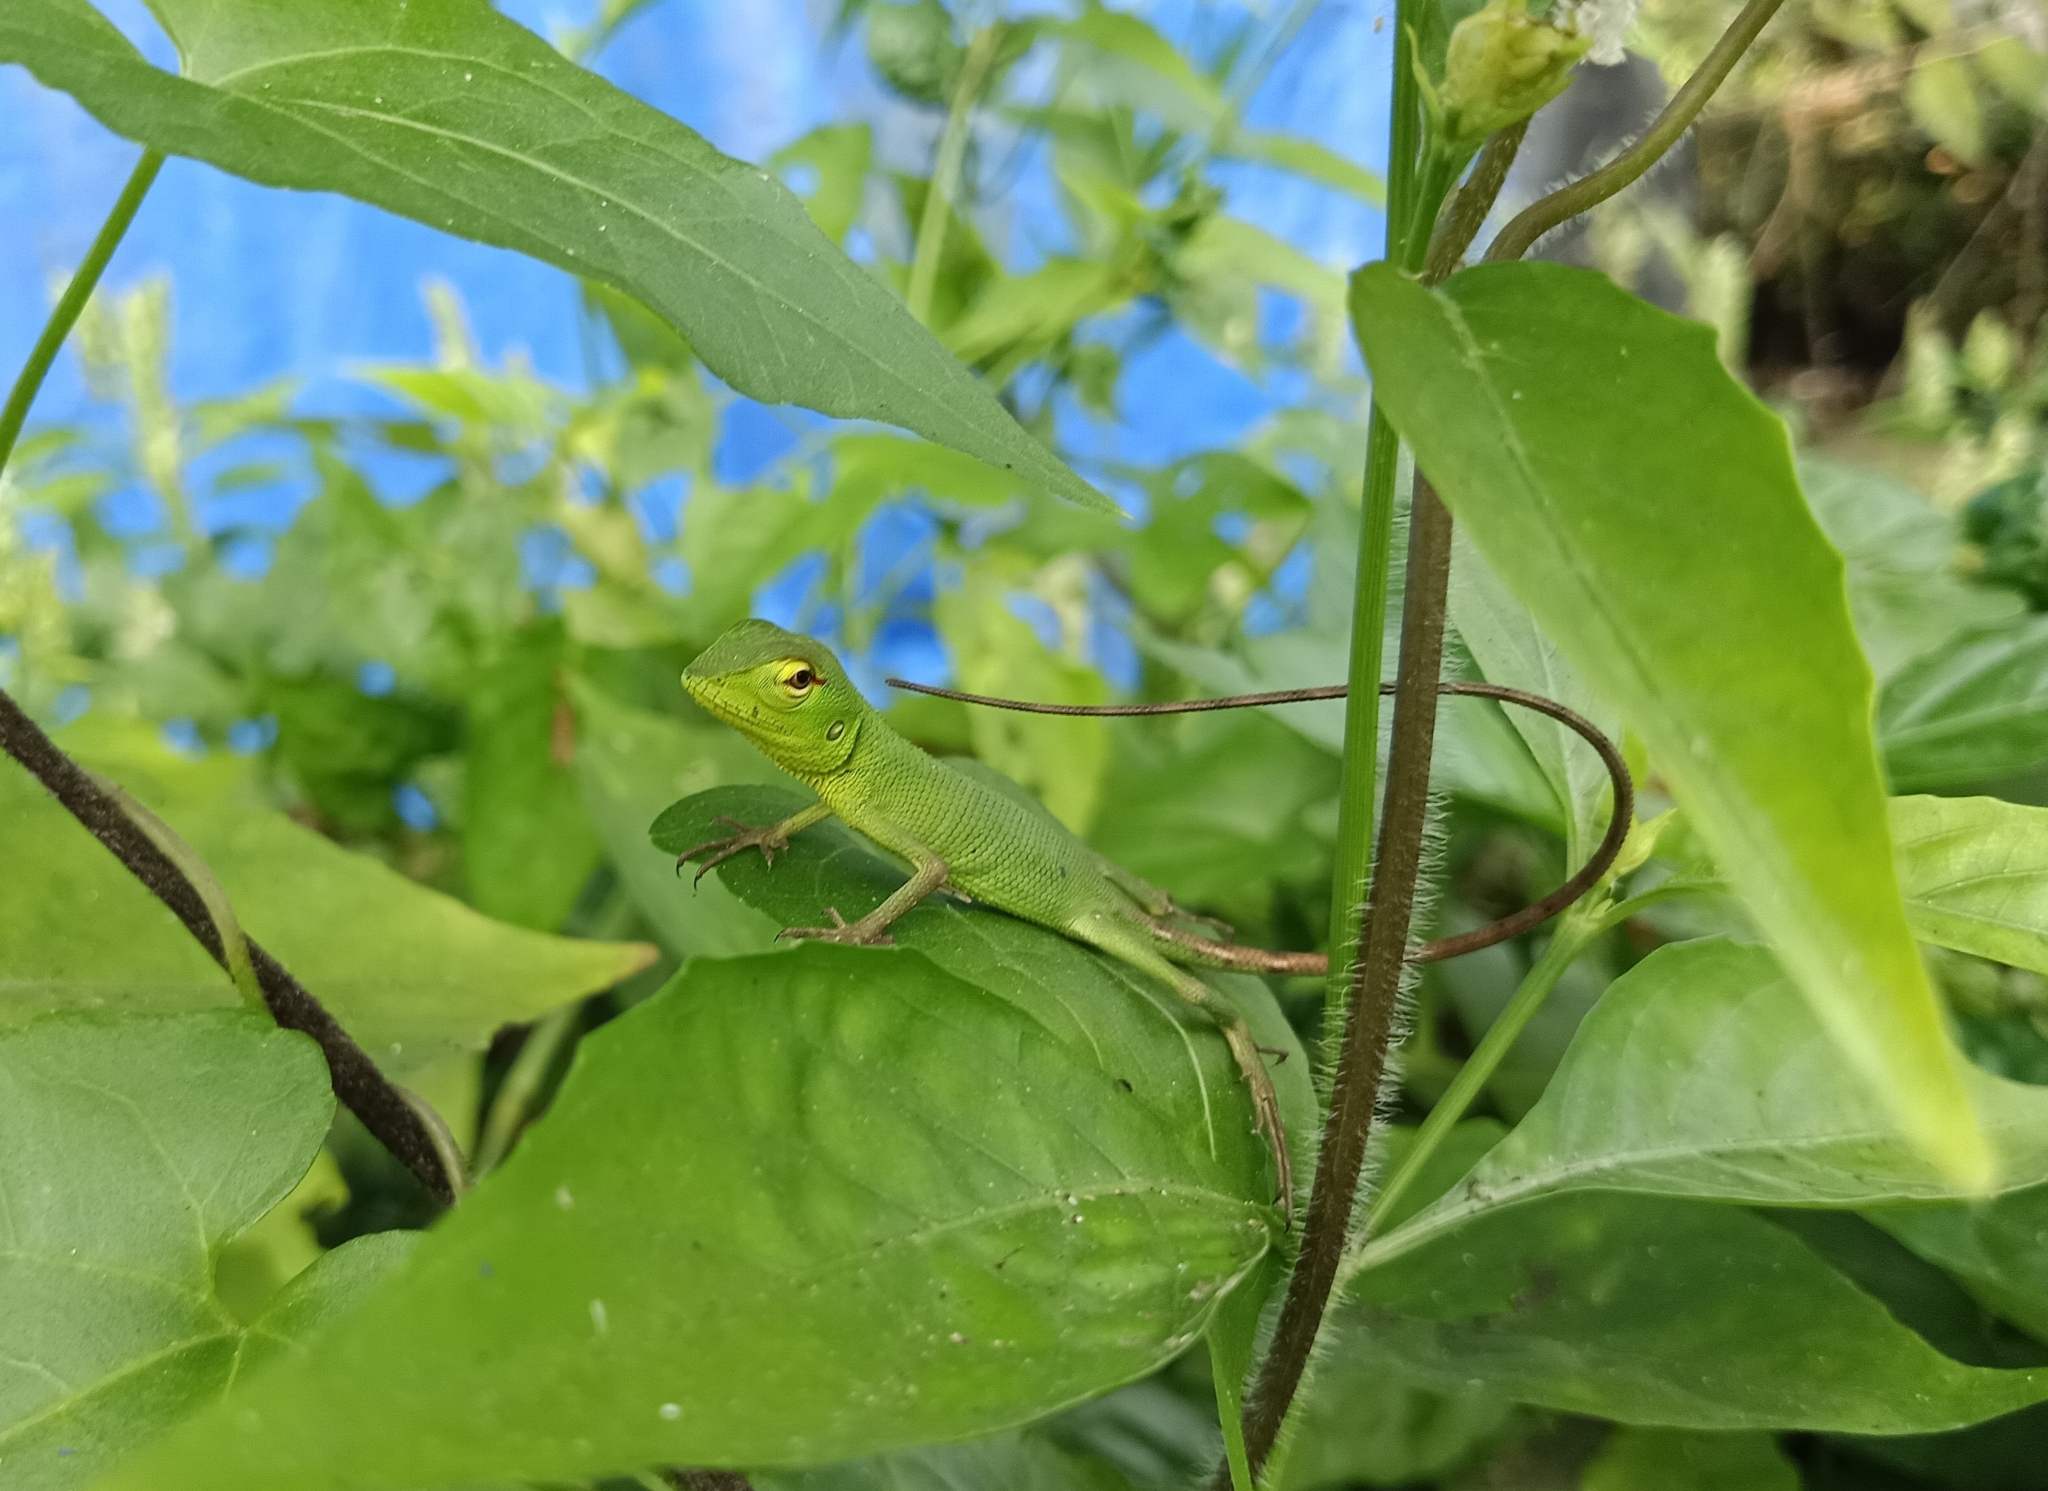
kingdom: Animalia
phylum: Chordata
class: Squamata
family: Agamidae
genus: Calotes
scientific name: Calotes calotes
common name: Common green forest lizard
